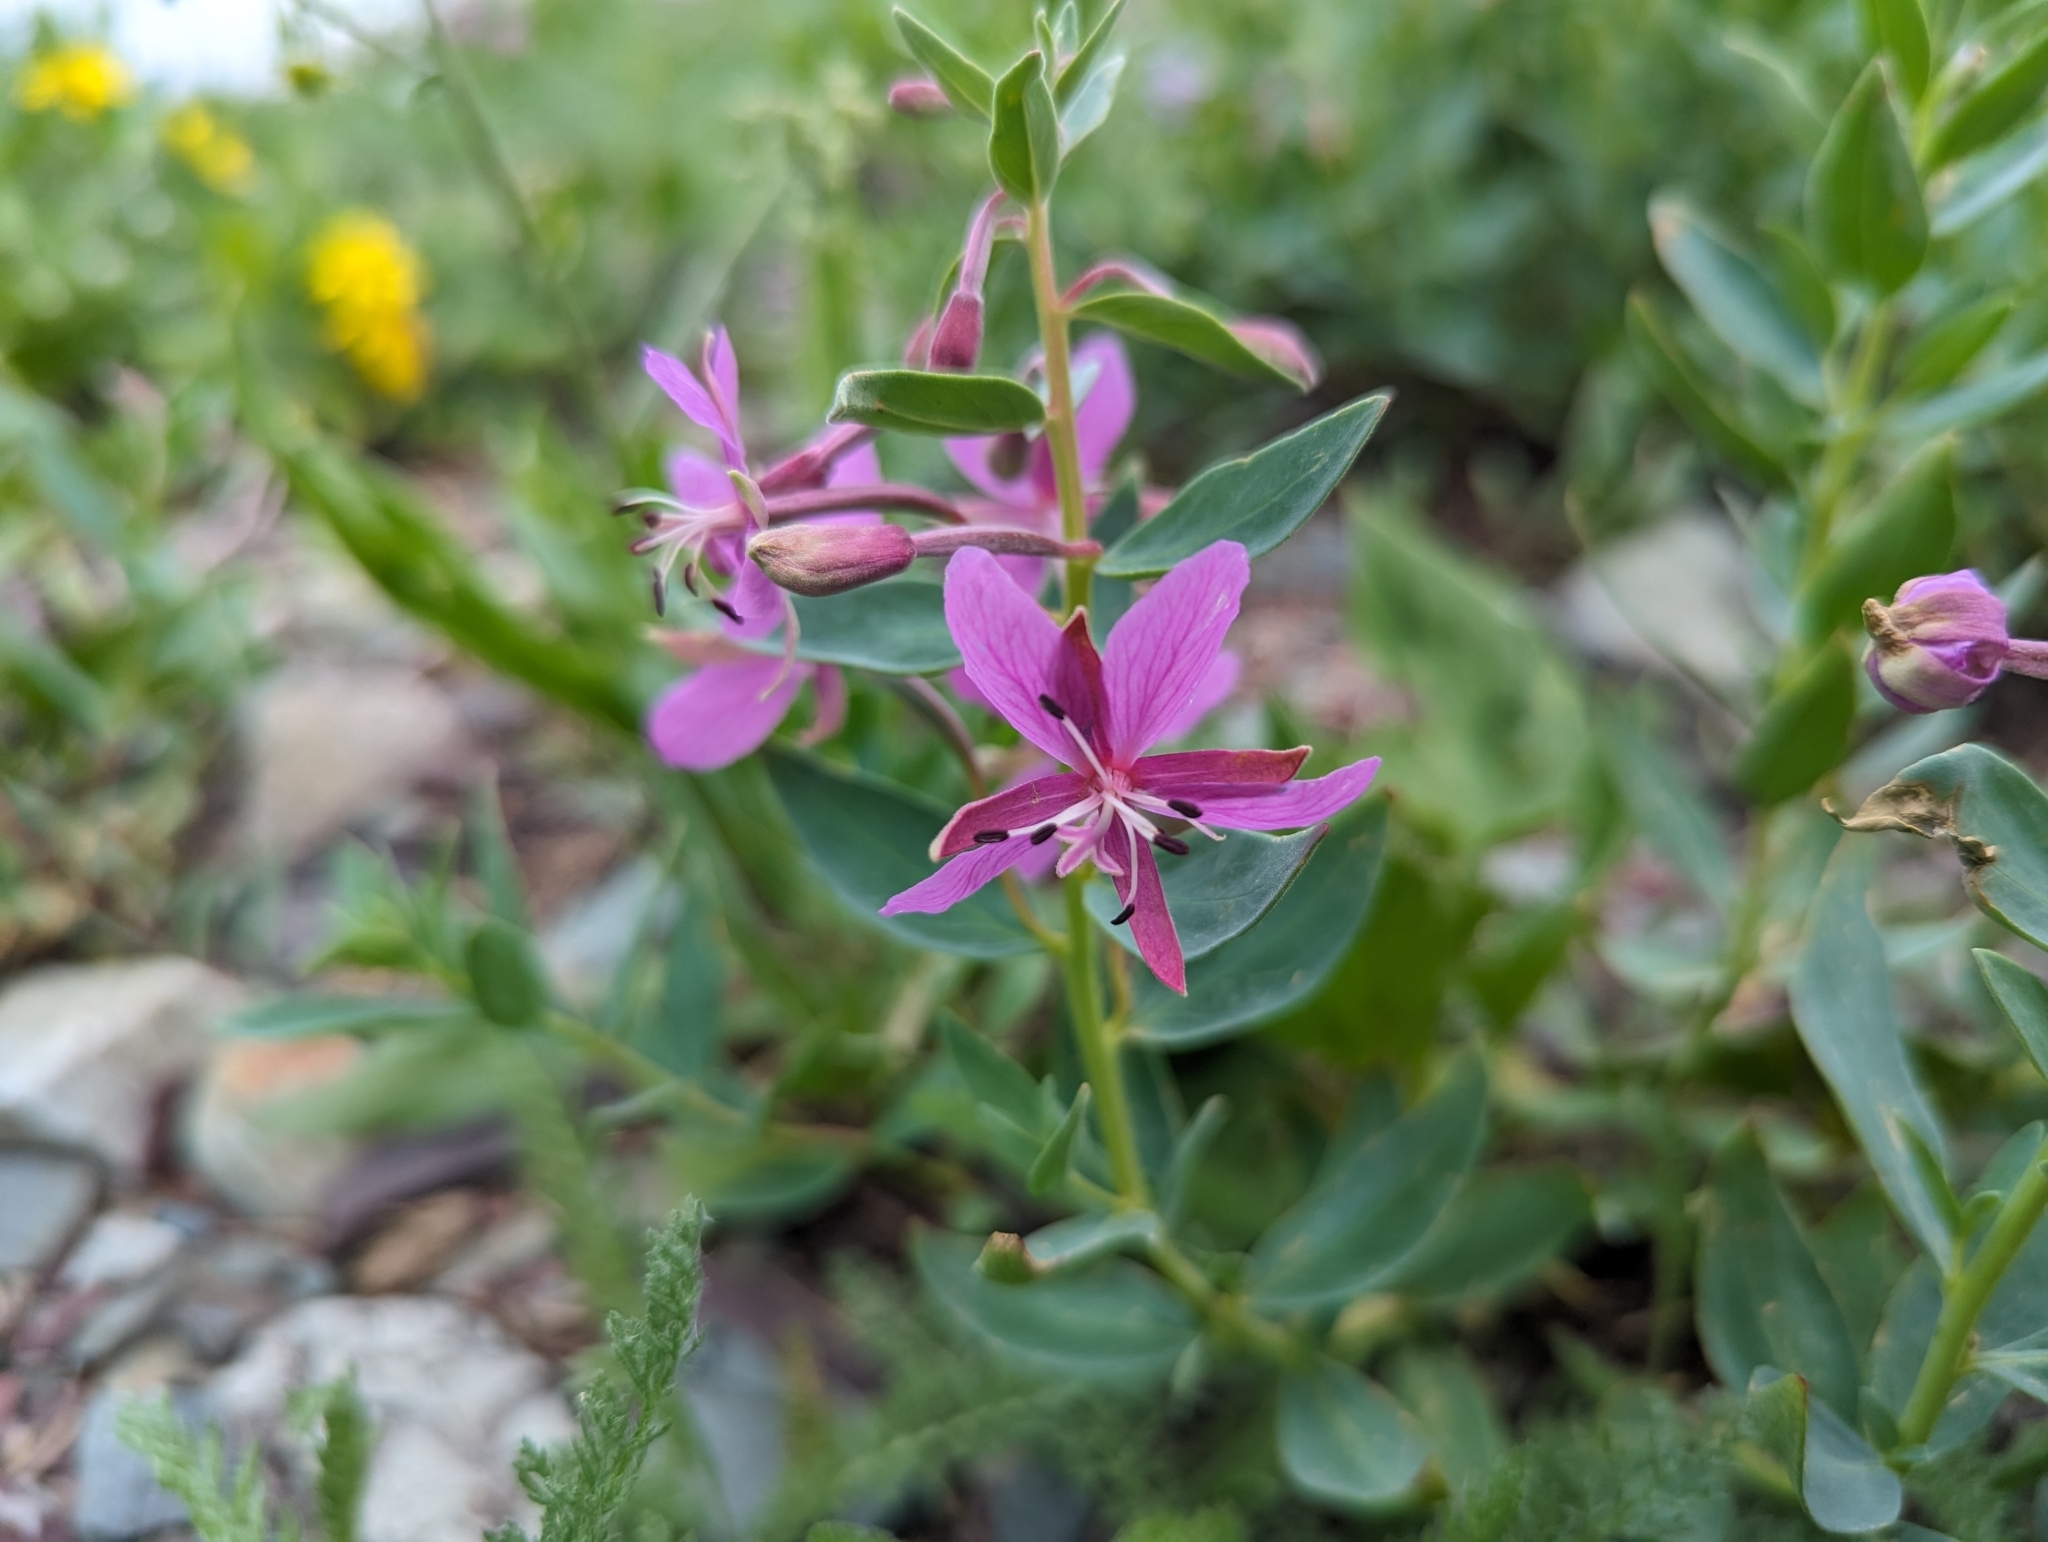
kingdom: Plantae
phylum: Tracheophyta
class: Magnoliopsida
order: Myrtales
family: Onagraceae
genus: Chamaenerion
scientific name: Chamaenerion latifolium
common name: Dwarf fireweed
